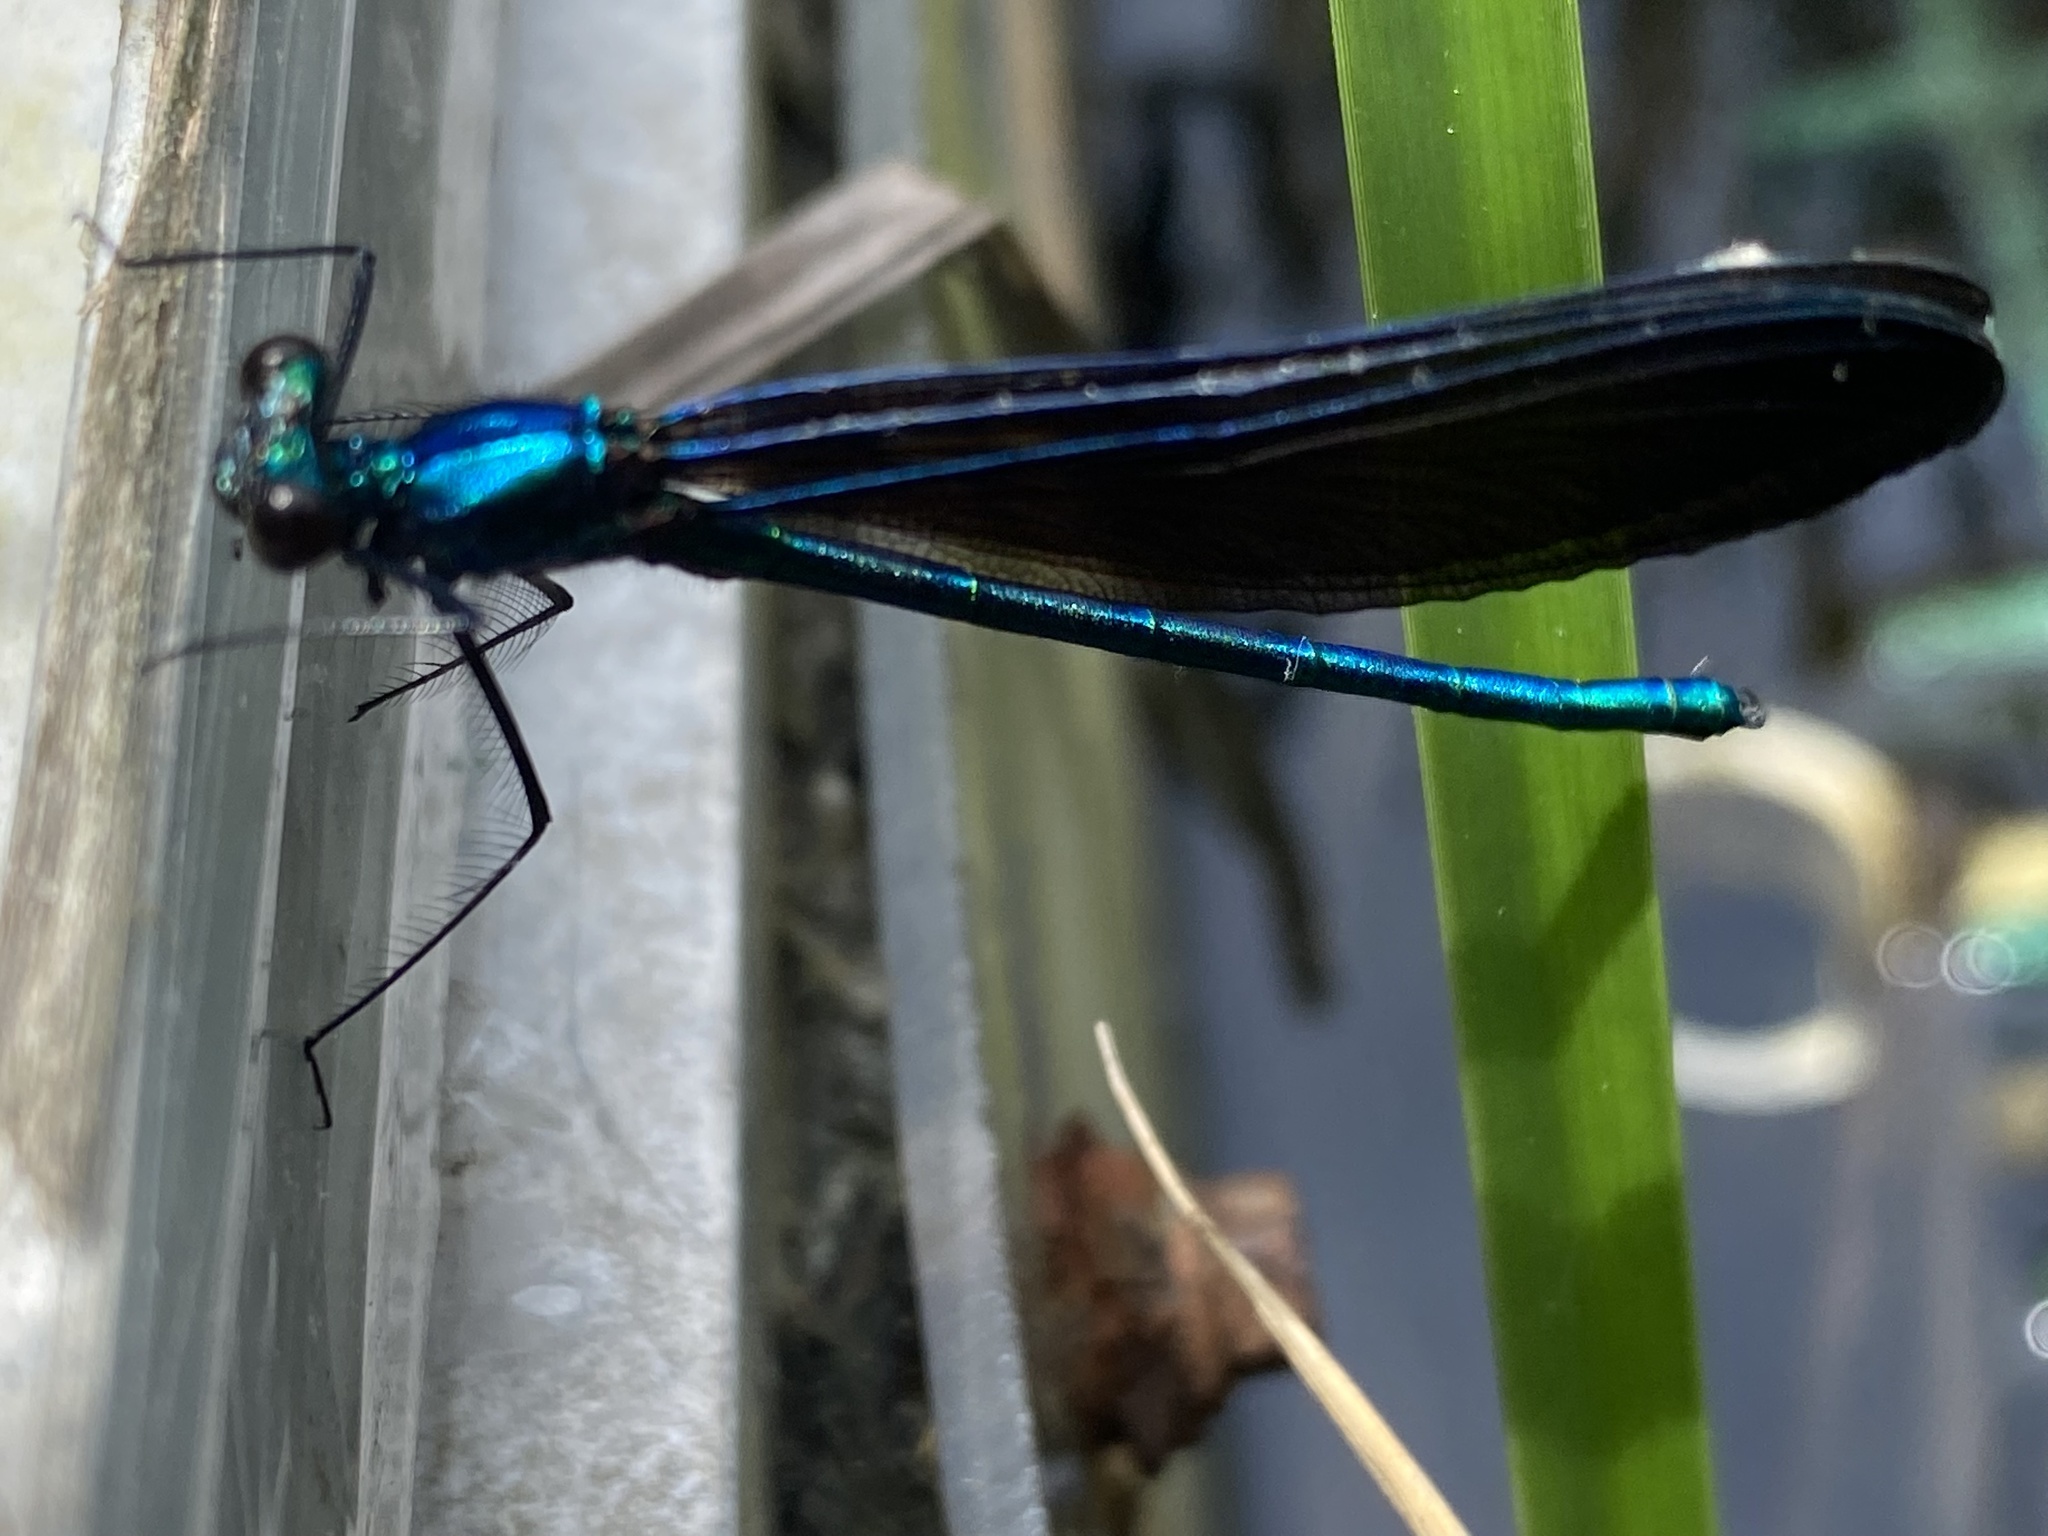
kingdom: Animalia
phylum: Arthropoda
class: Insecta
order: Odonata
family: Calopterygidae
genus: Calopteryx
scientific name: Calopteryx maculata
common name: Ebony jewelwing
